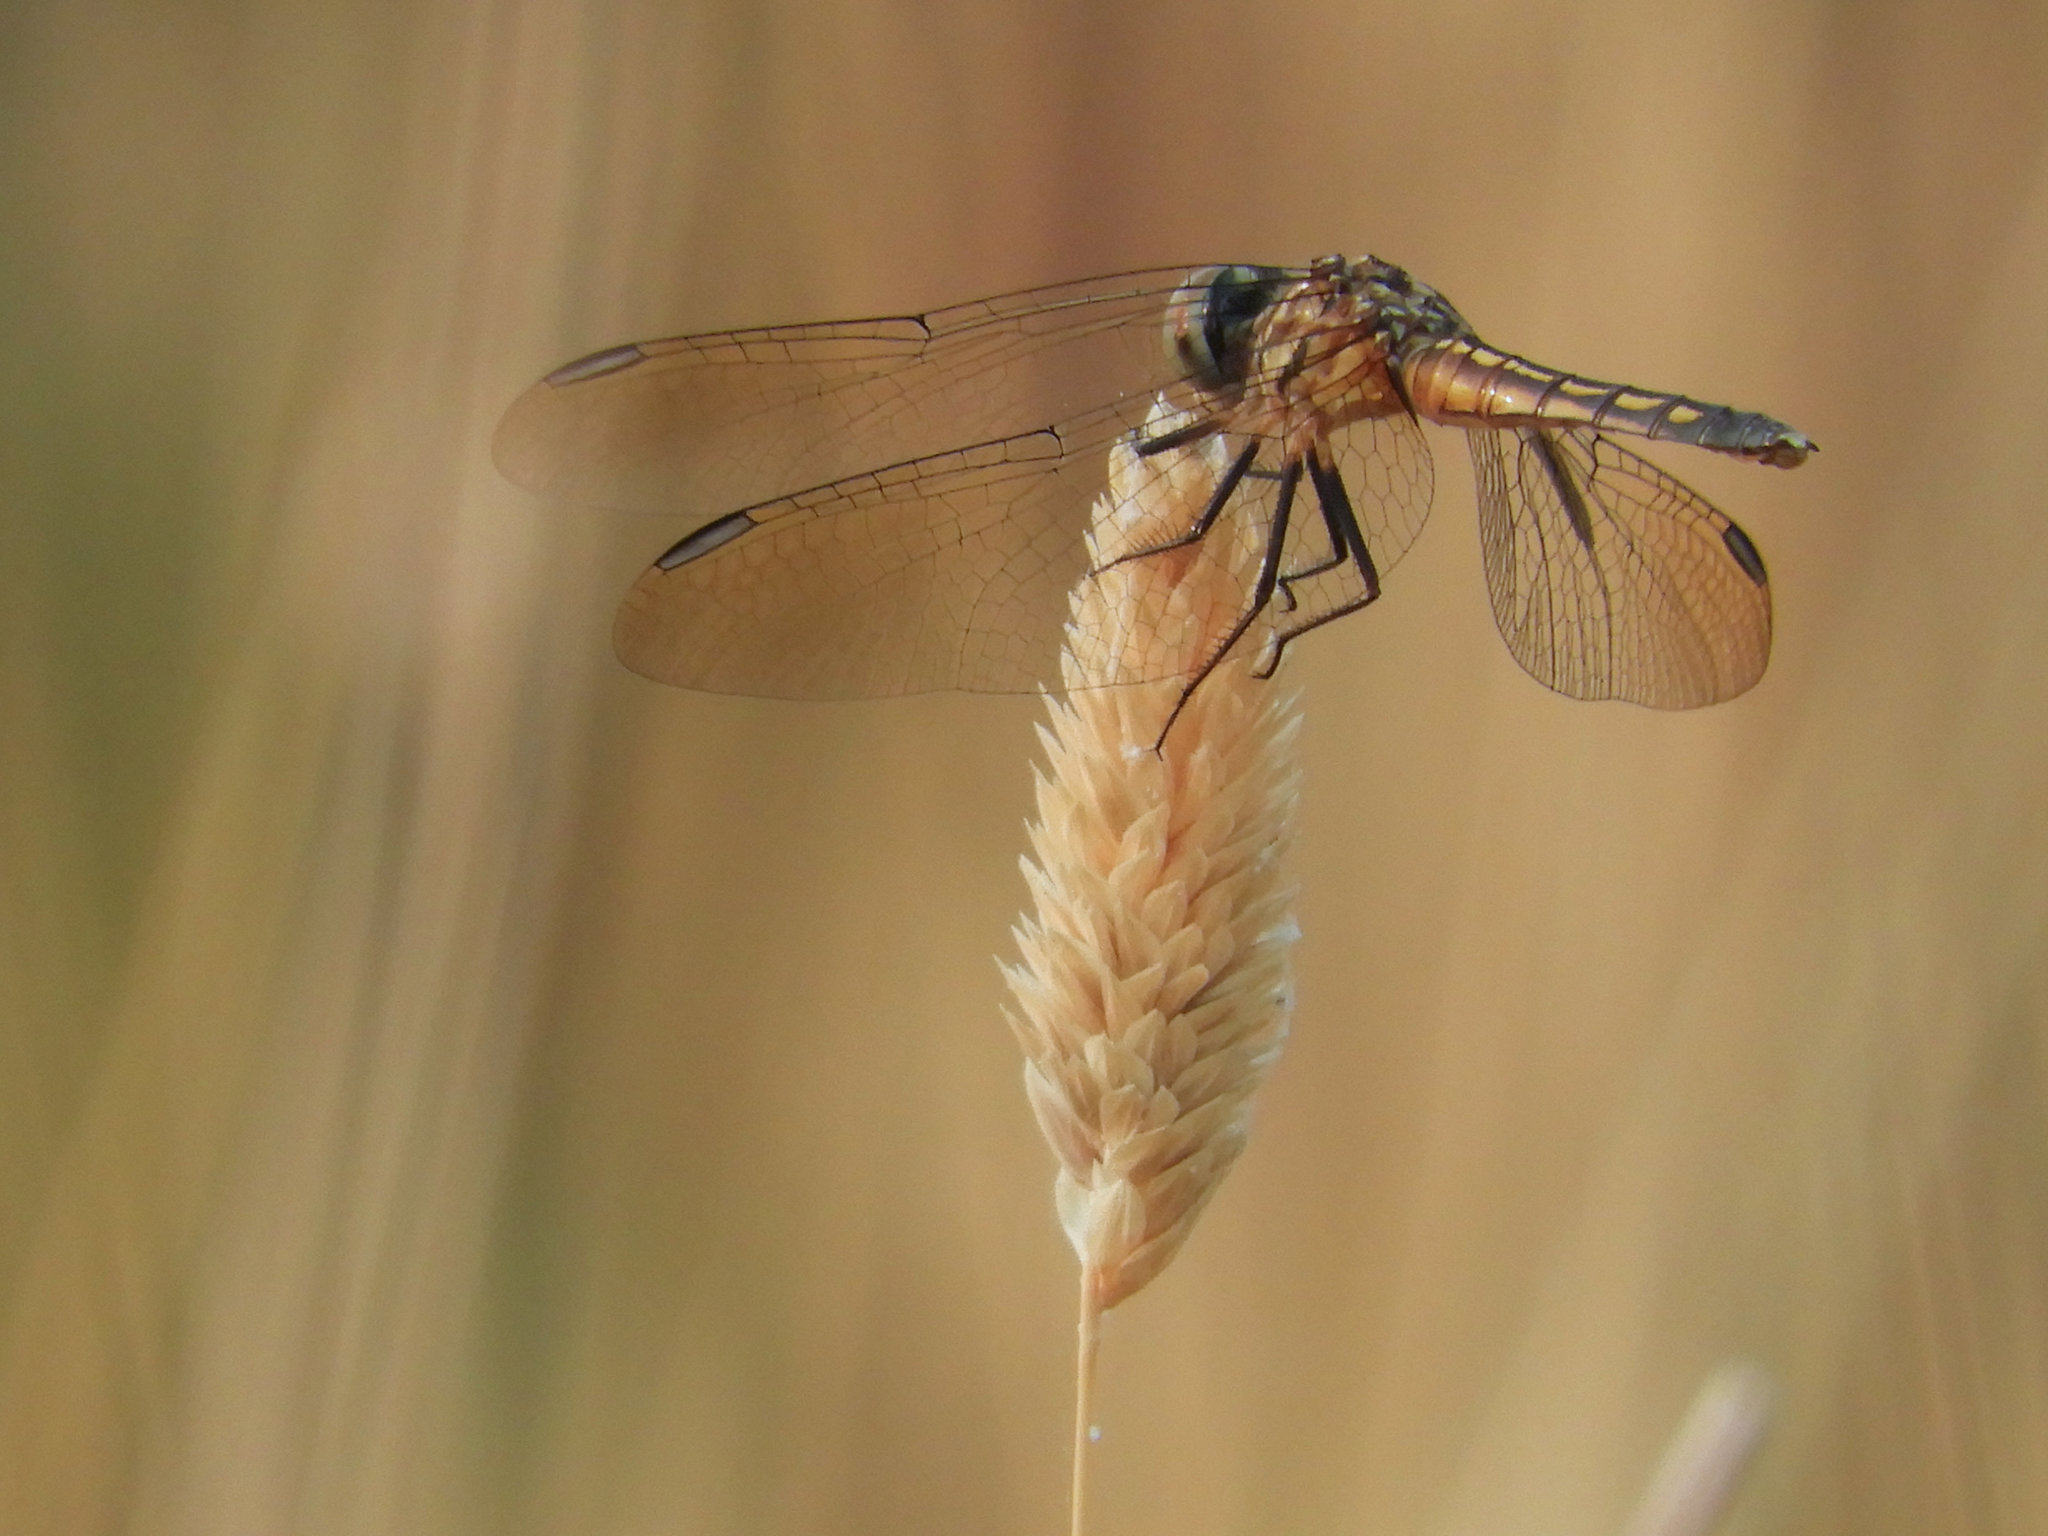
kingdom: Animalia
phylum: Arthropoda
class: Insecta
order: Odonata
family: Libellulidae
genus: Pachydiplax
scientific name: Pachydiplax longipennis
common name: Blue dasher
